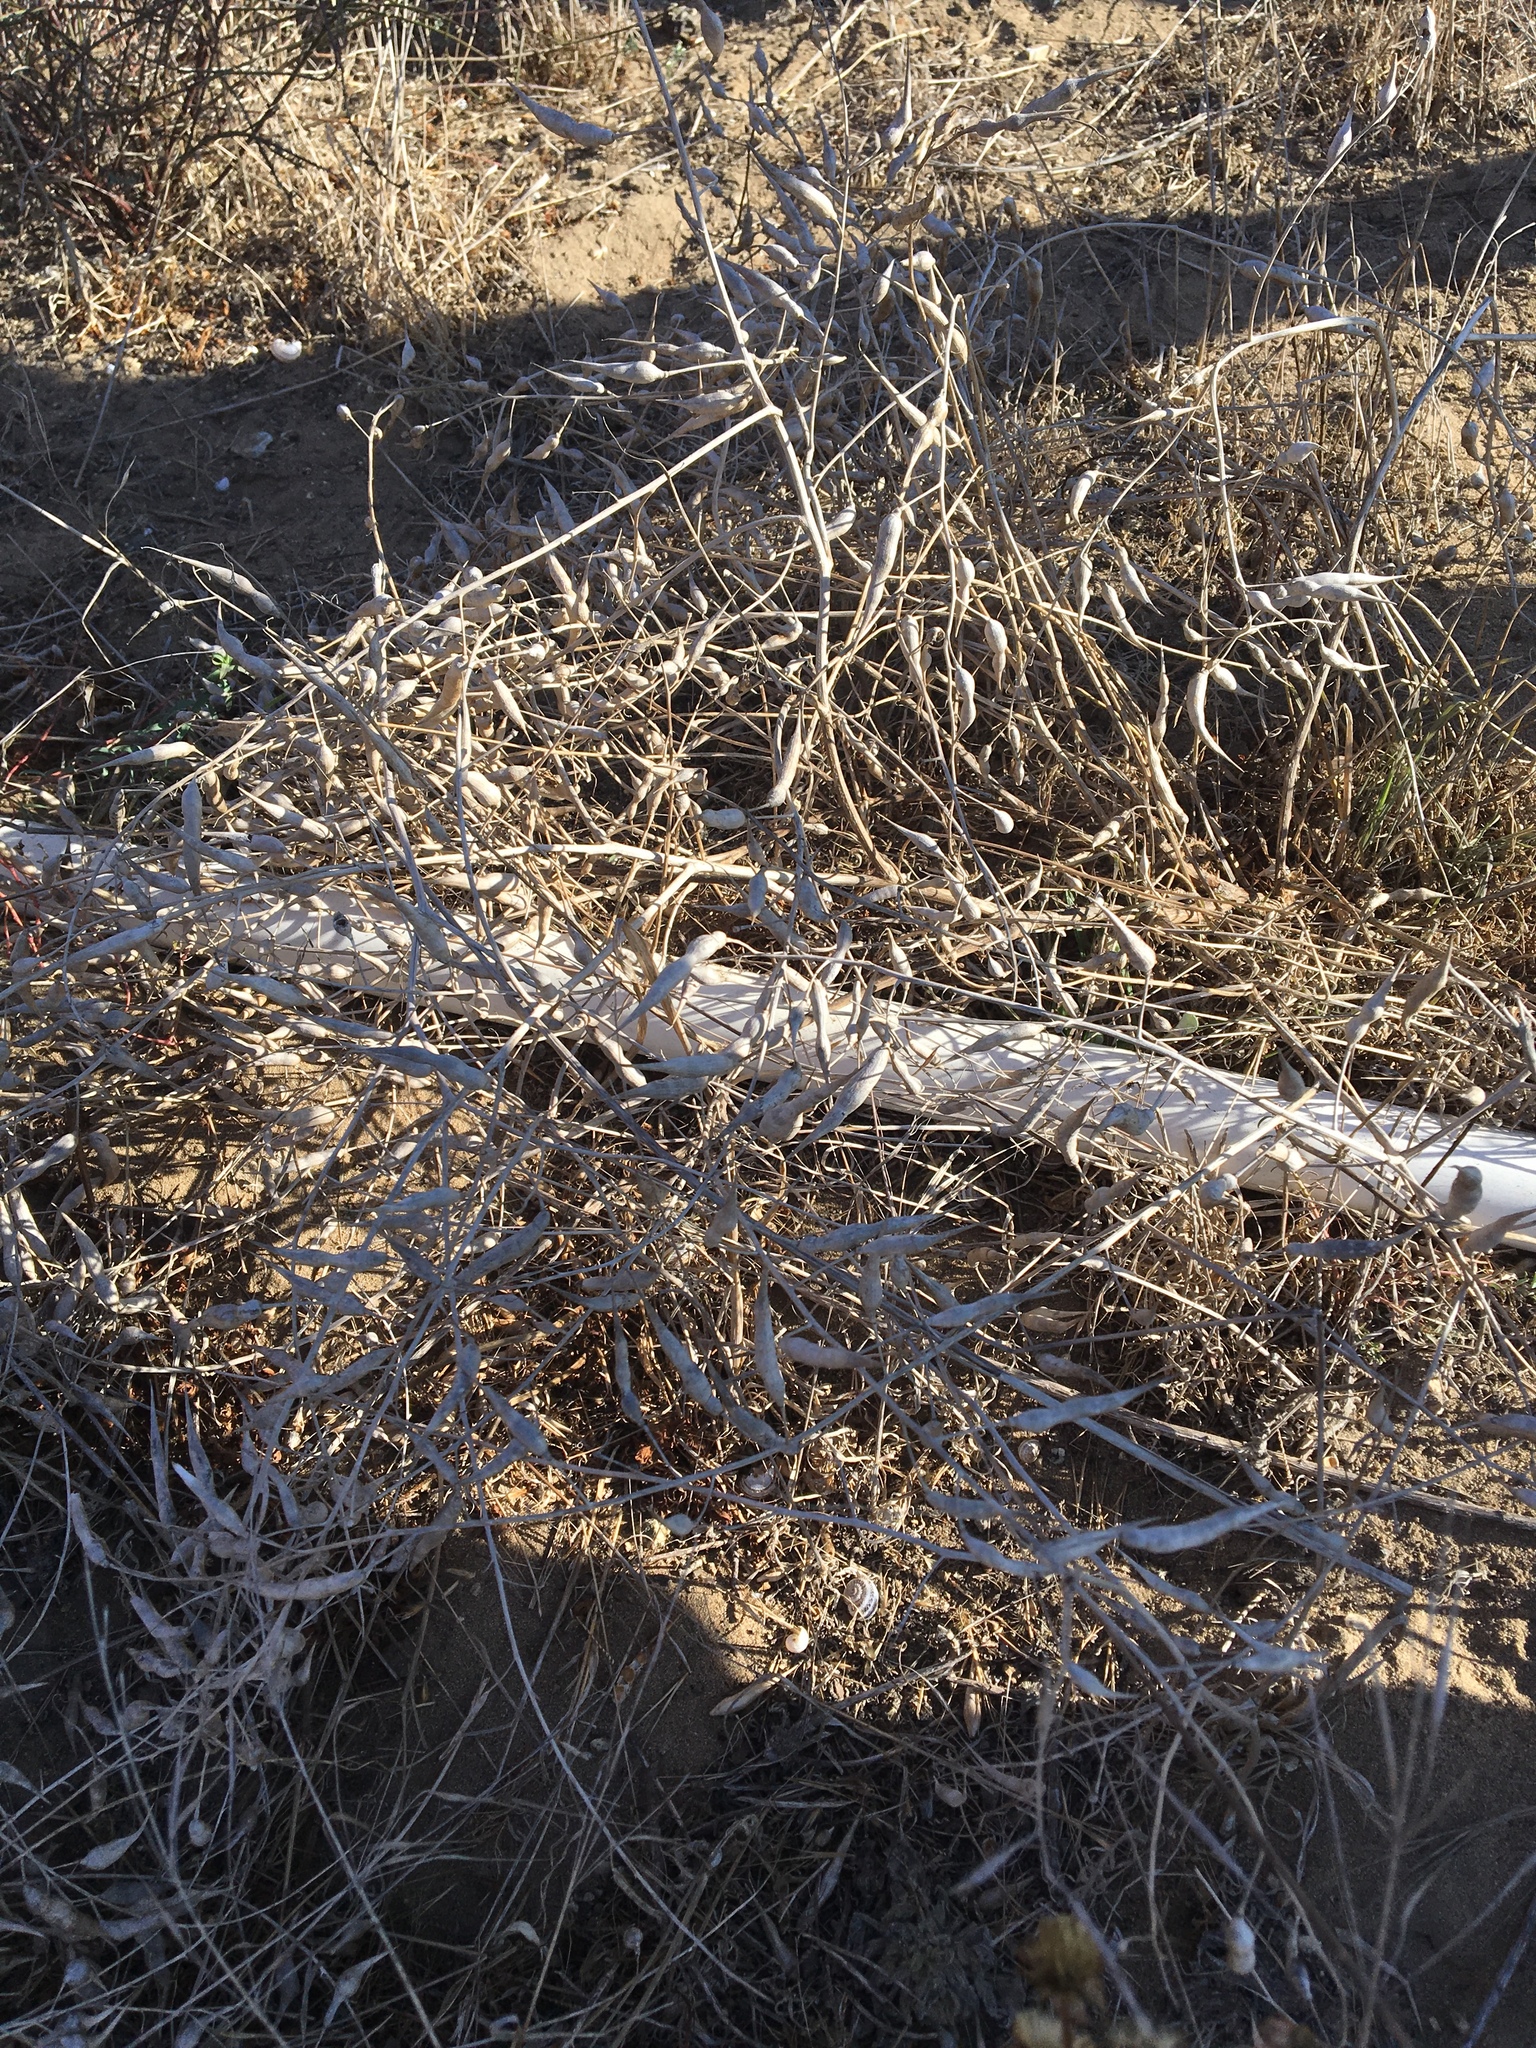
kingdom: Plantae
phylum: Tracheophyta
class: Magnoliopsida
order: Brassicales
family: Brassicaceae
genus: Raphanus
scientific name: Raphanus sativus
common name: Cultivated radish
